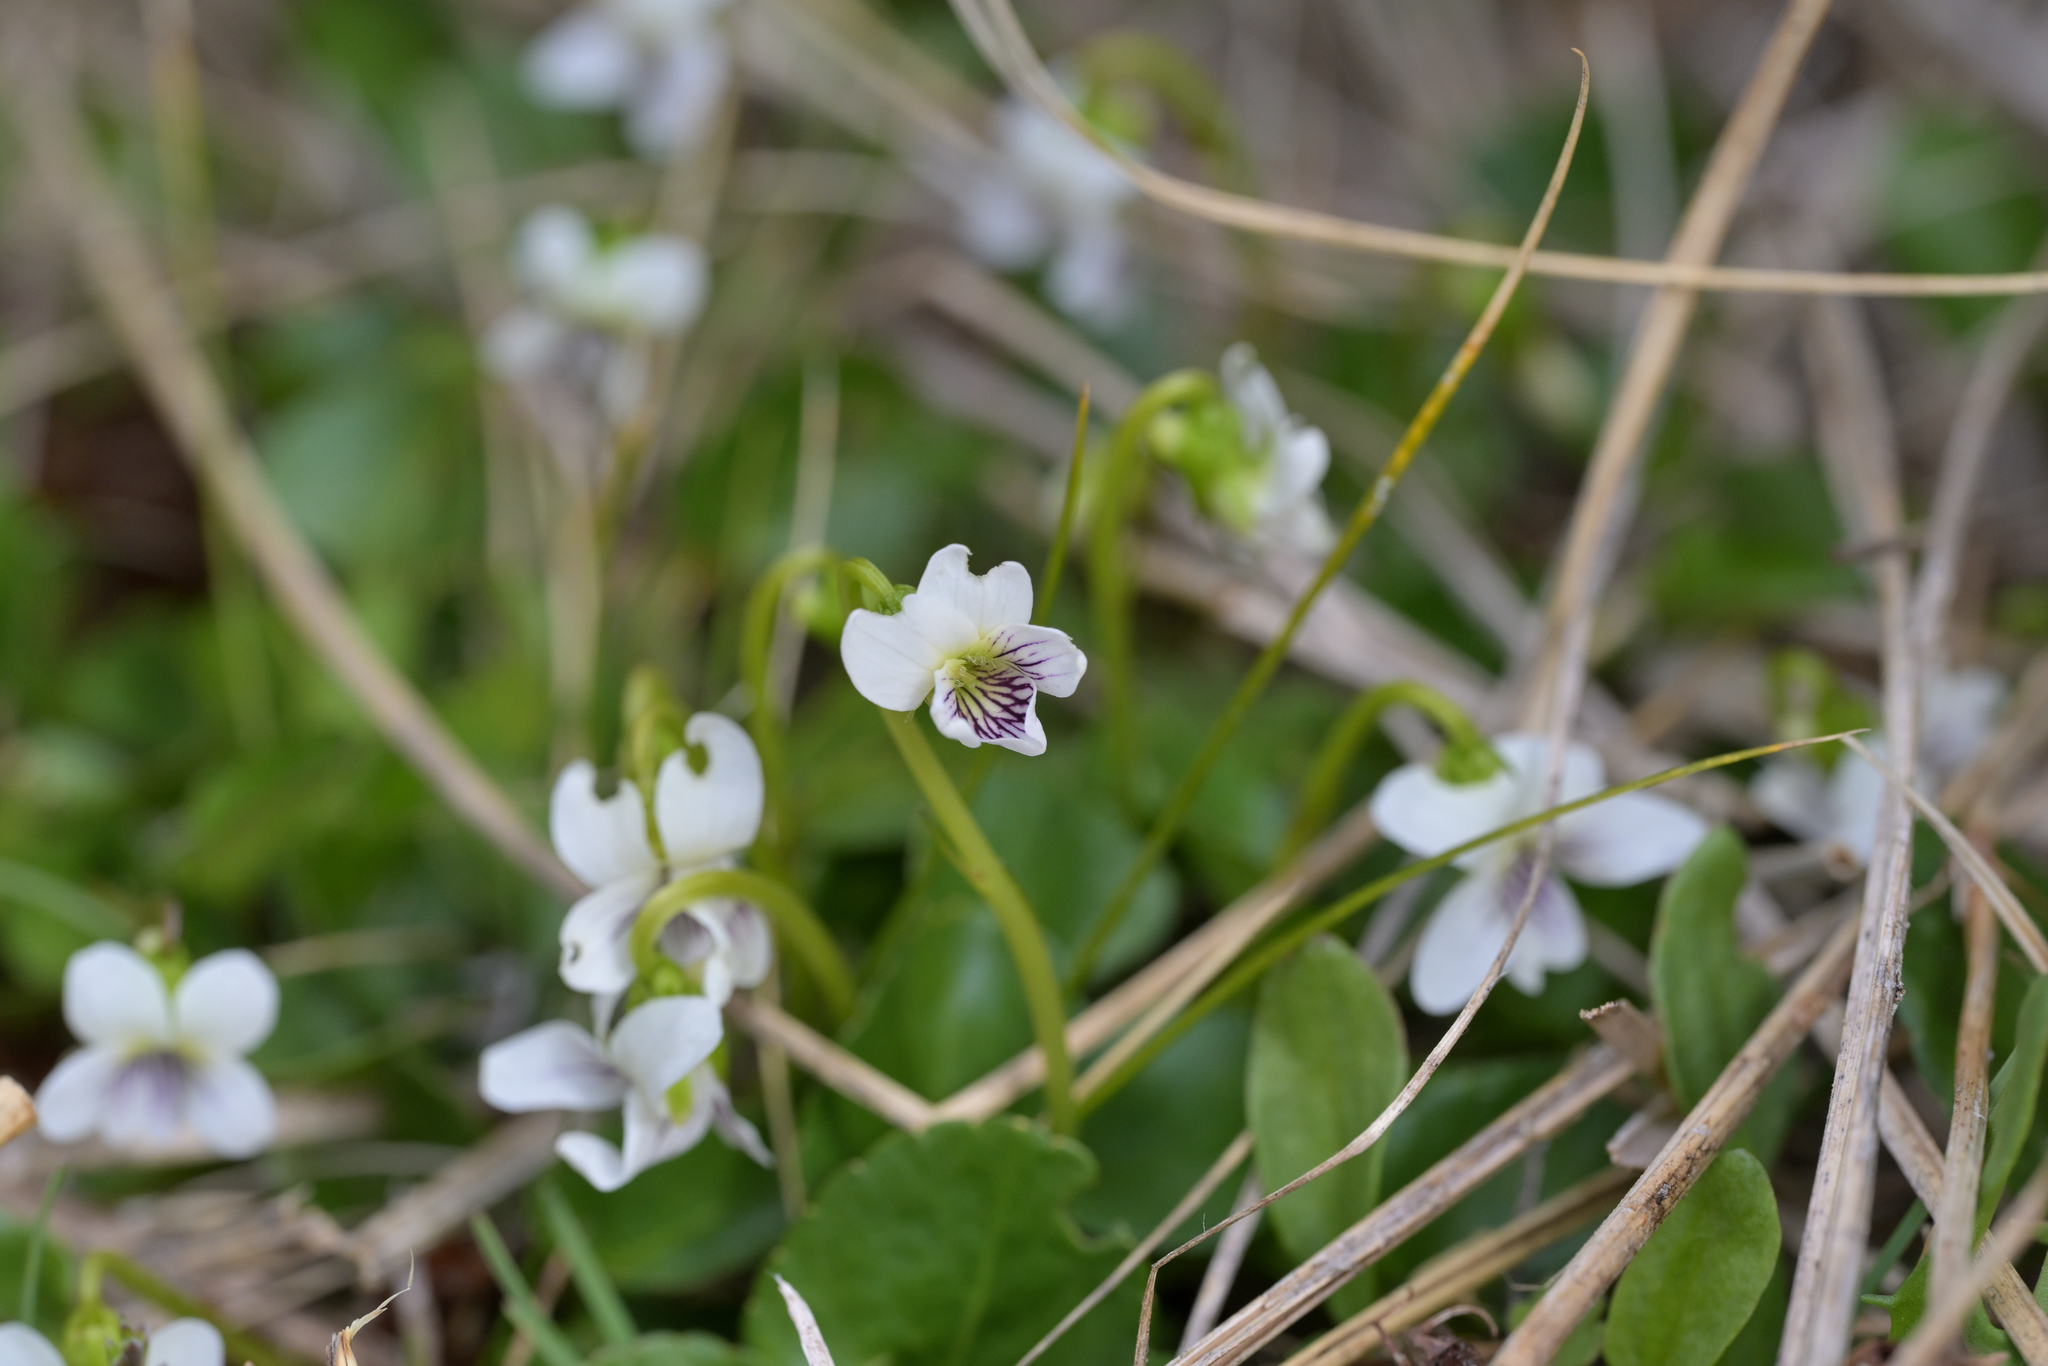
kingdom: Plantae
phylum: Tracheophyta
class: Magnoliopsida
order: Malpighiales
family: Violaceae
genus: Viola
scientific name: Viola cunninghamii
